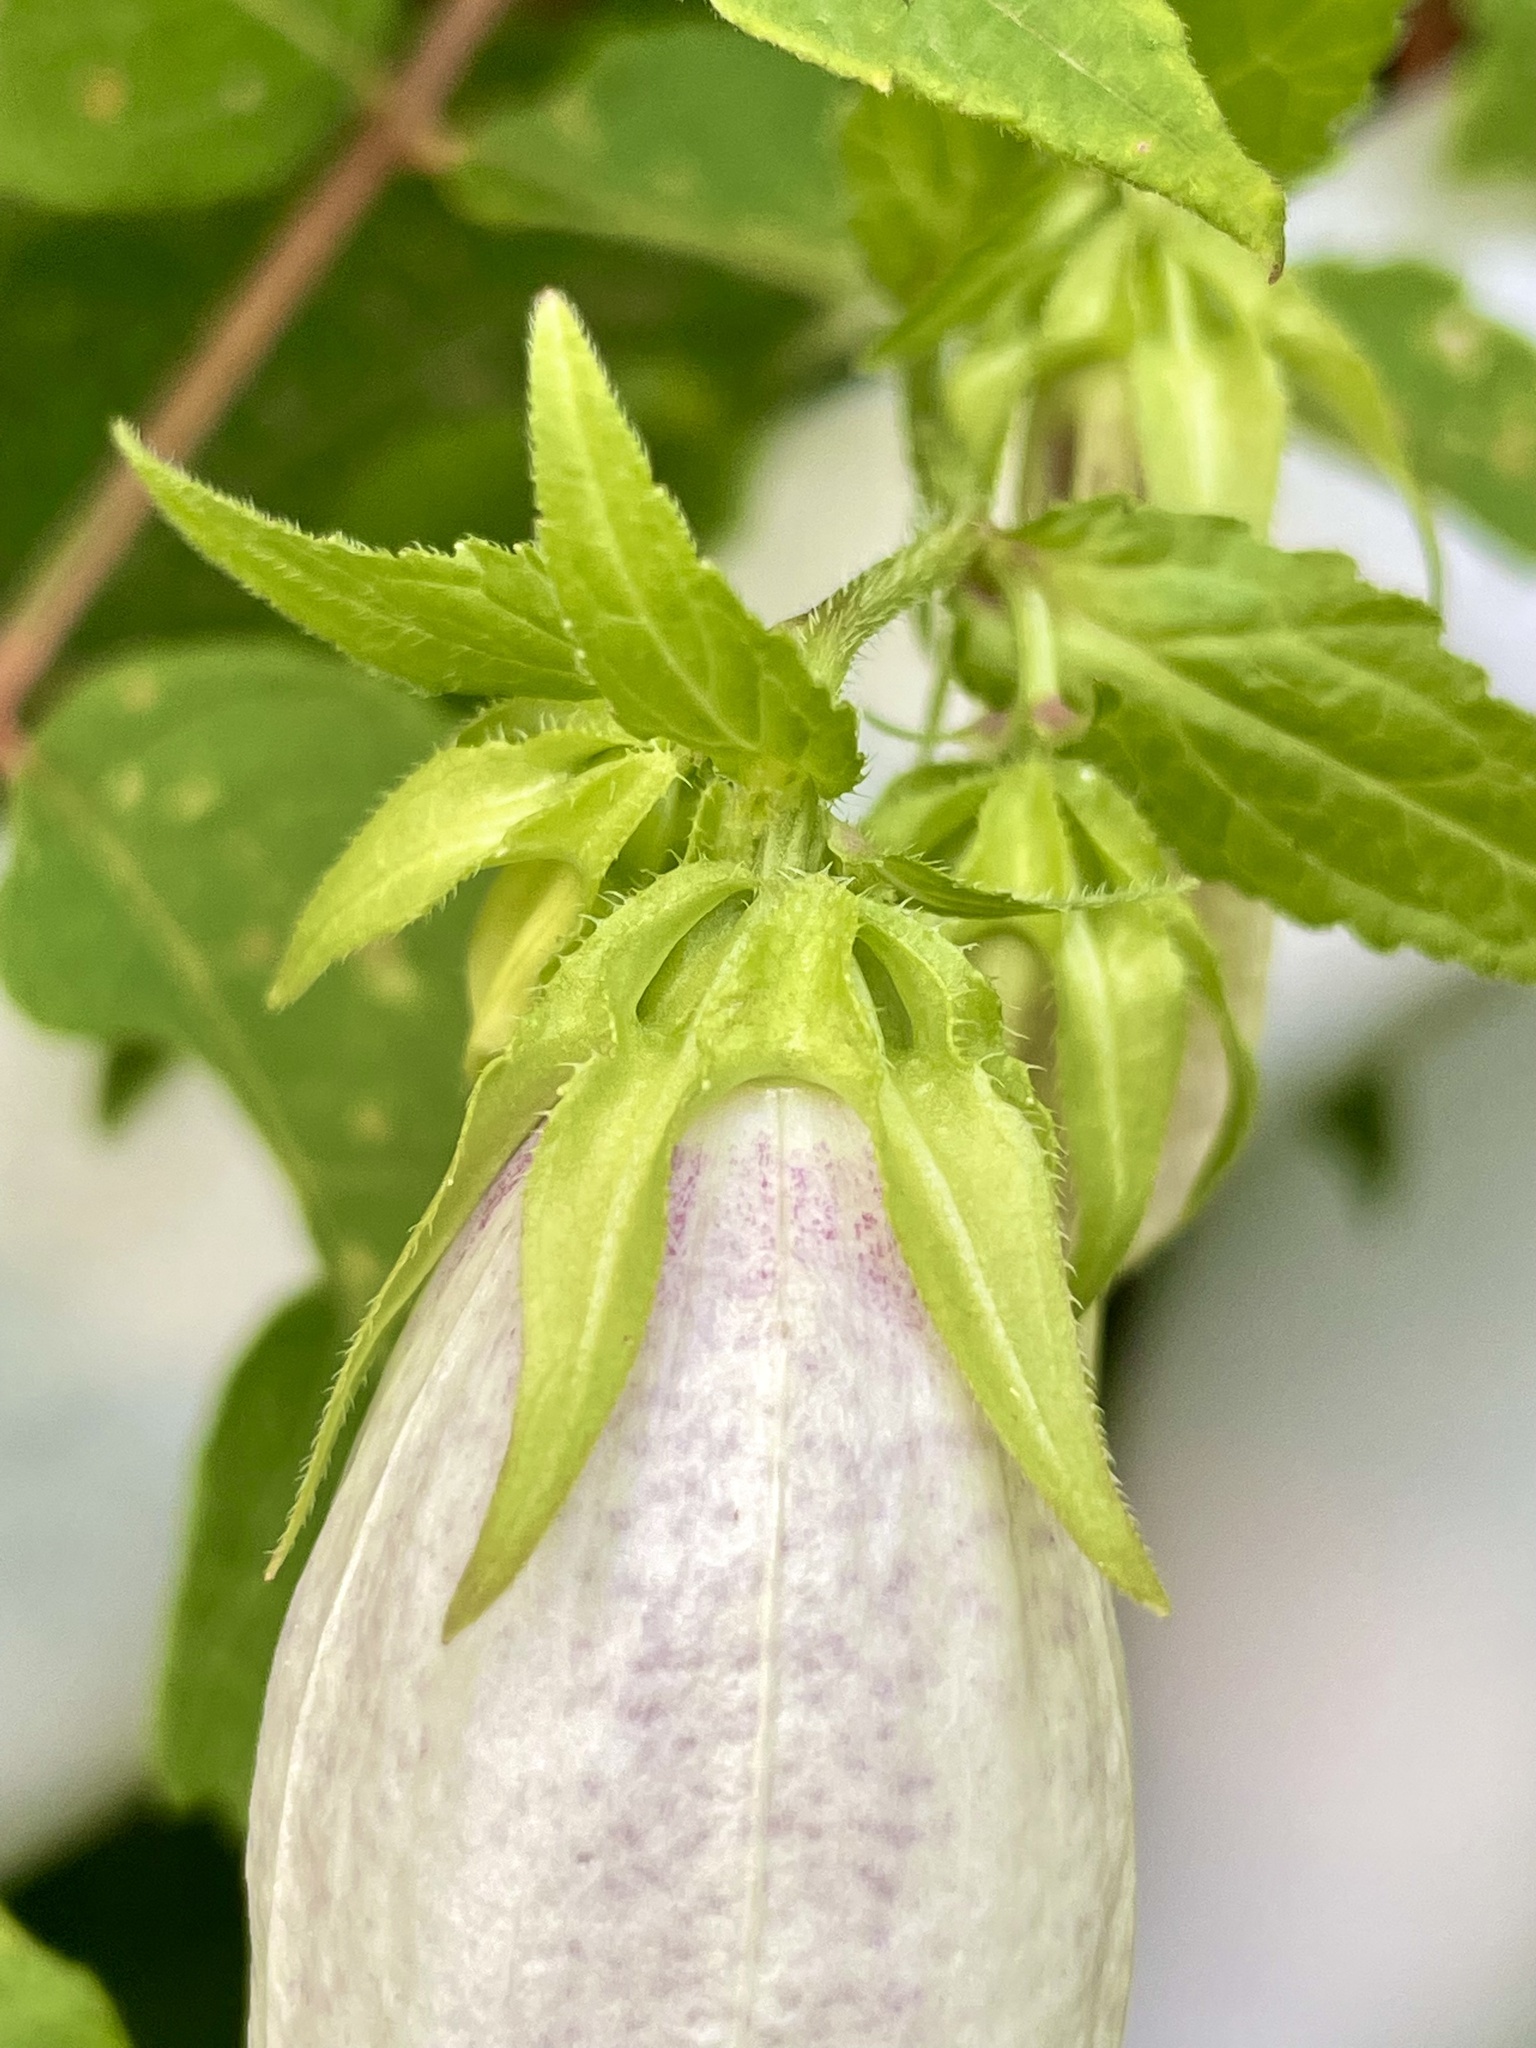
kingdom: Plantae
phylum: Tracheophyta
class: Magnoliopsida
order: Asterales
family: Campanulaceae
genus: Campanula
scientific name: Campanula punctata
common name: Spotted bellflower
